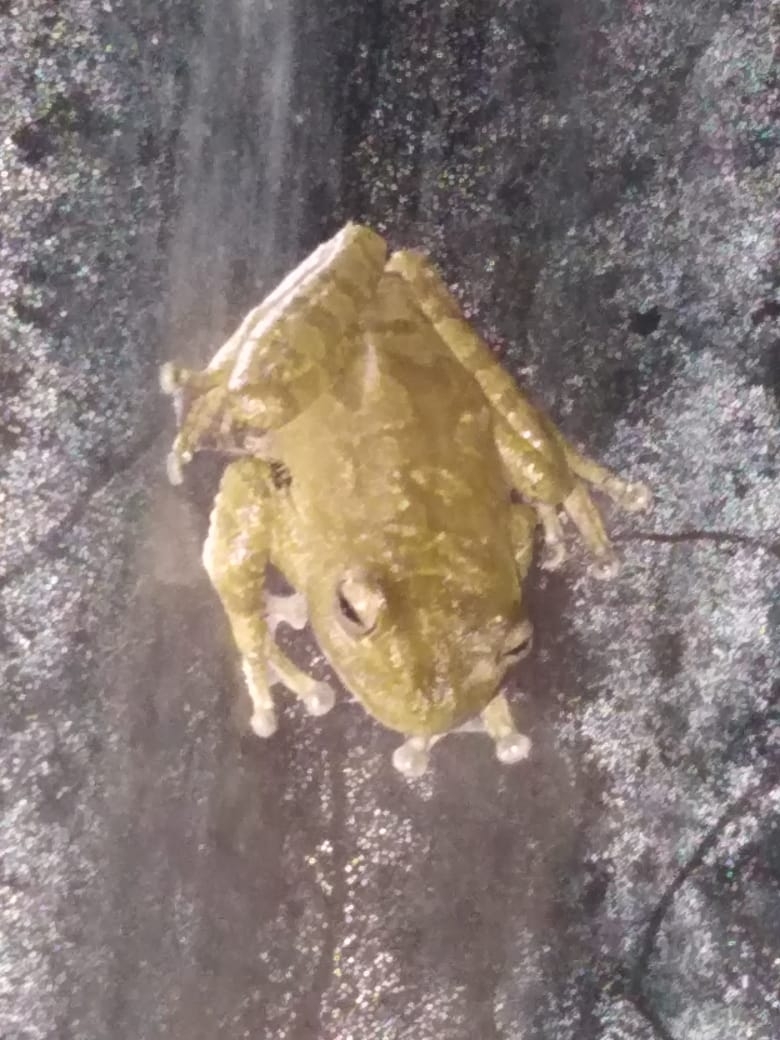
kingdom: Animalia
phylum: Chordata
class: Amphibia
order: Anura
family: Hylidae
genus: Smilisca
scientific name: Smilisca sordida
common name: Veragua cross-banded treefrog
